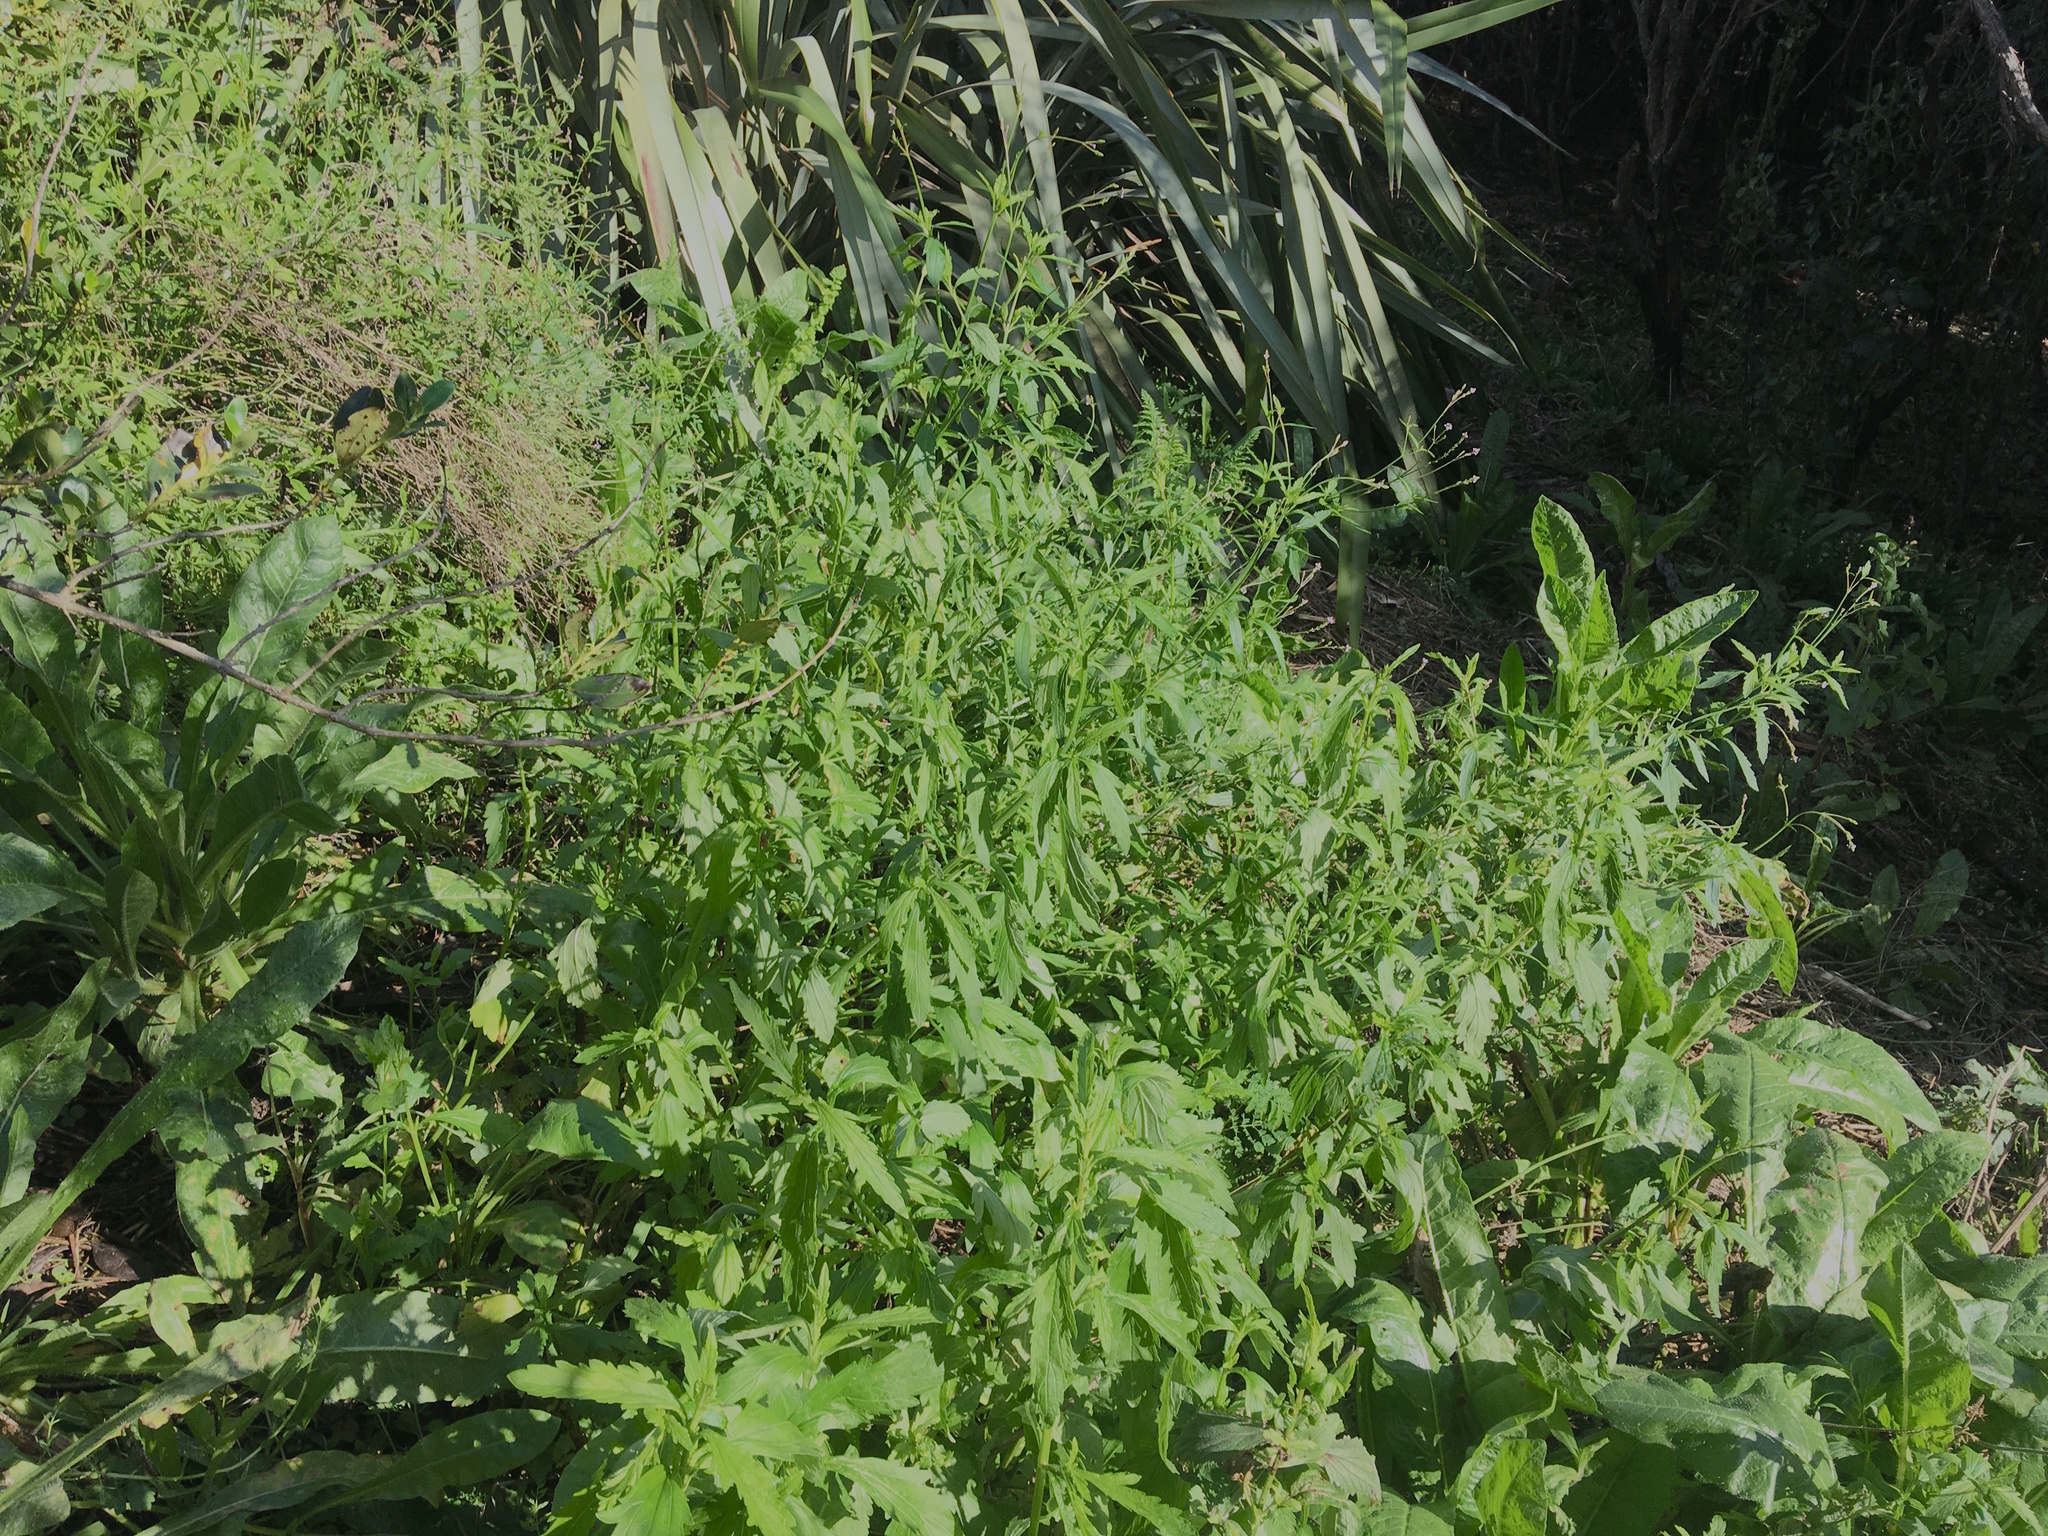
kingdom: Plantae
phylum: Tracheophyta
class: Magnoliopsida
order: Lamiales
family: Verbenaceae
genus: Verbena
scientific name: Verbena incompta
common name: Purpletop vervain
